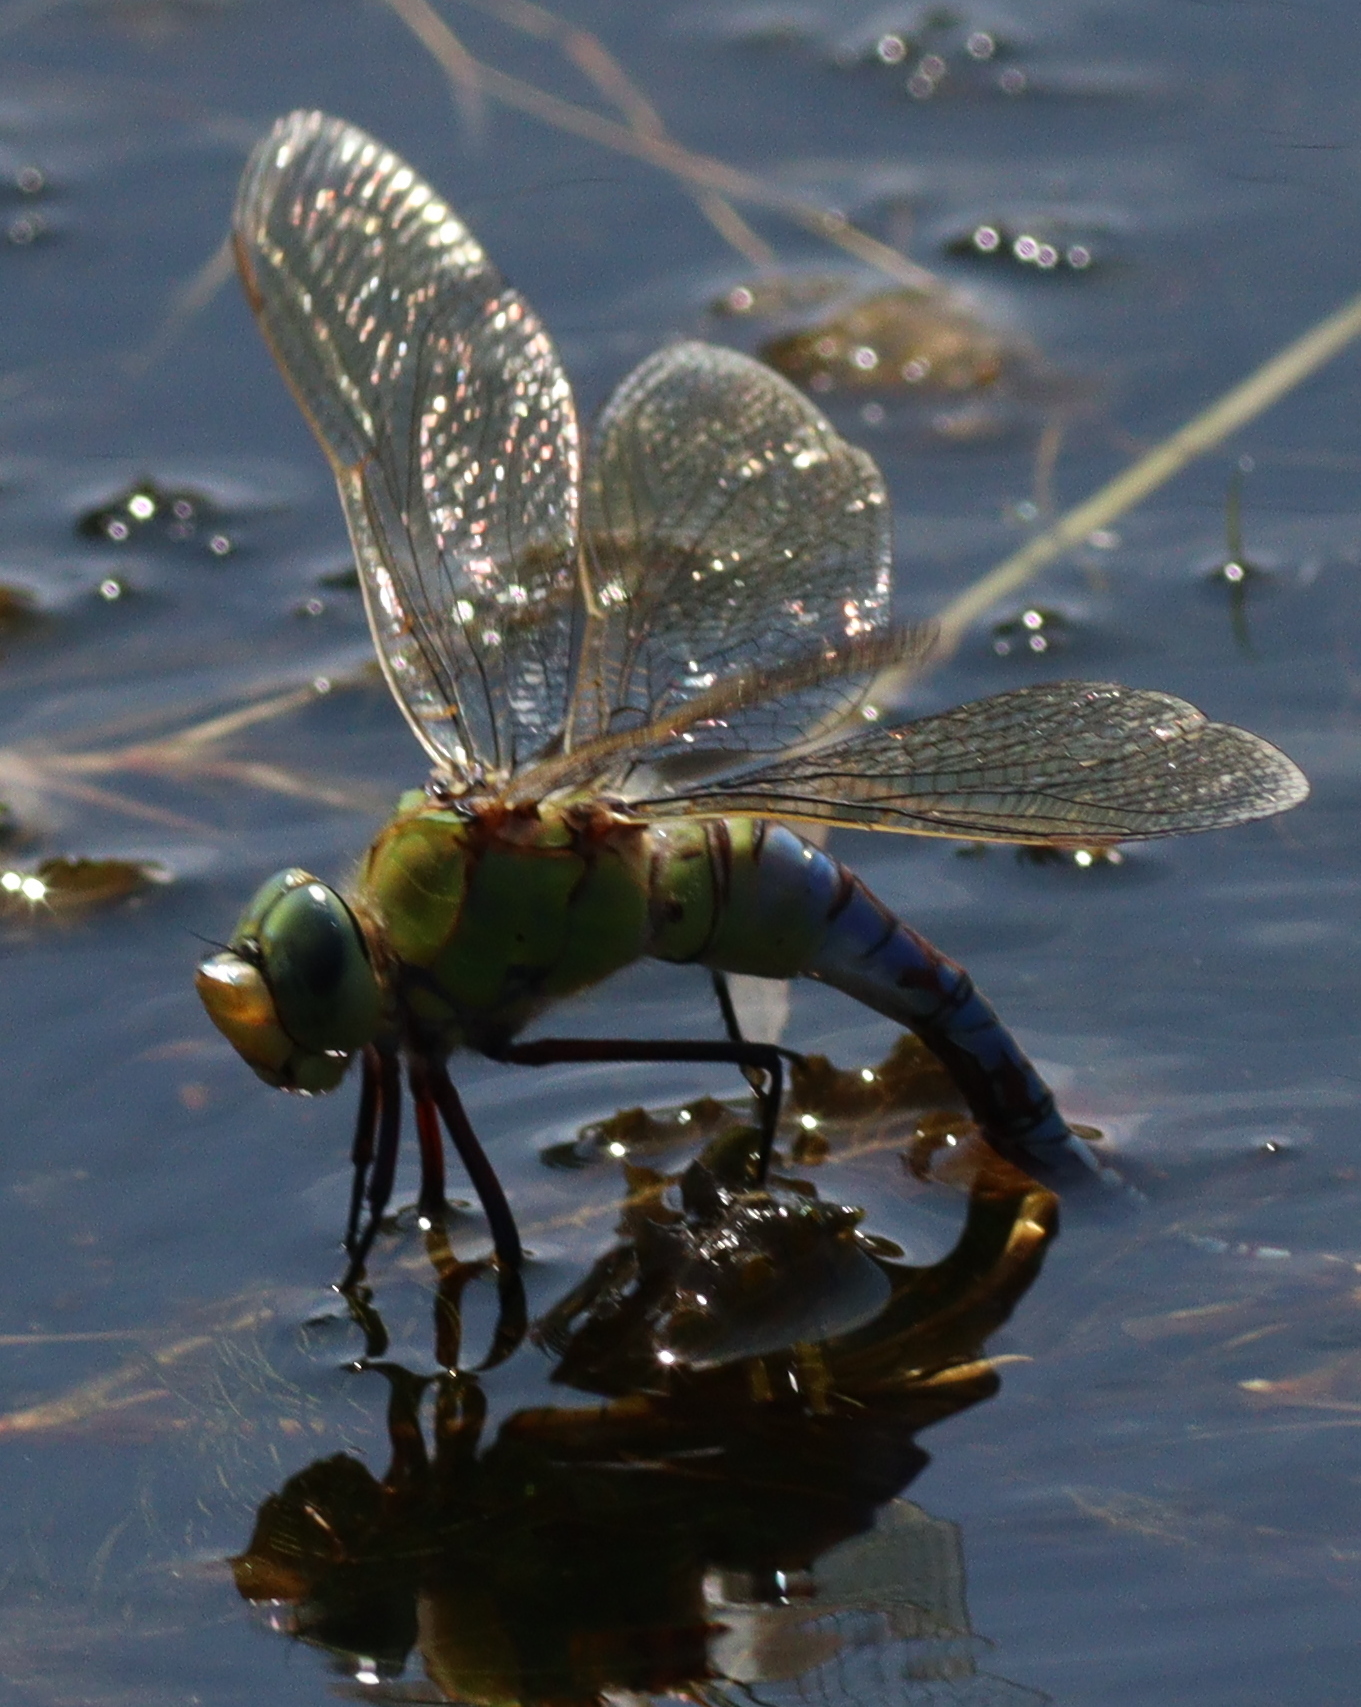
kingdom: Animalia
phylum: Arthropoda
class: Insecta
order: Odonata
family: Aeshnidae
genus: Anax
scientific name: Anax imperator
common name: Emperor dragonfly
